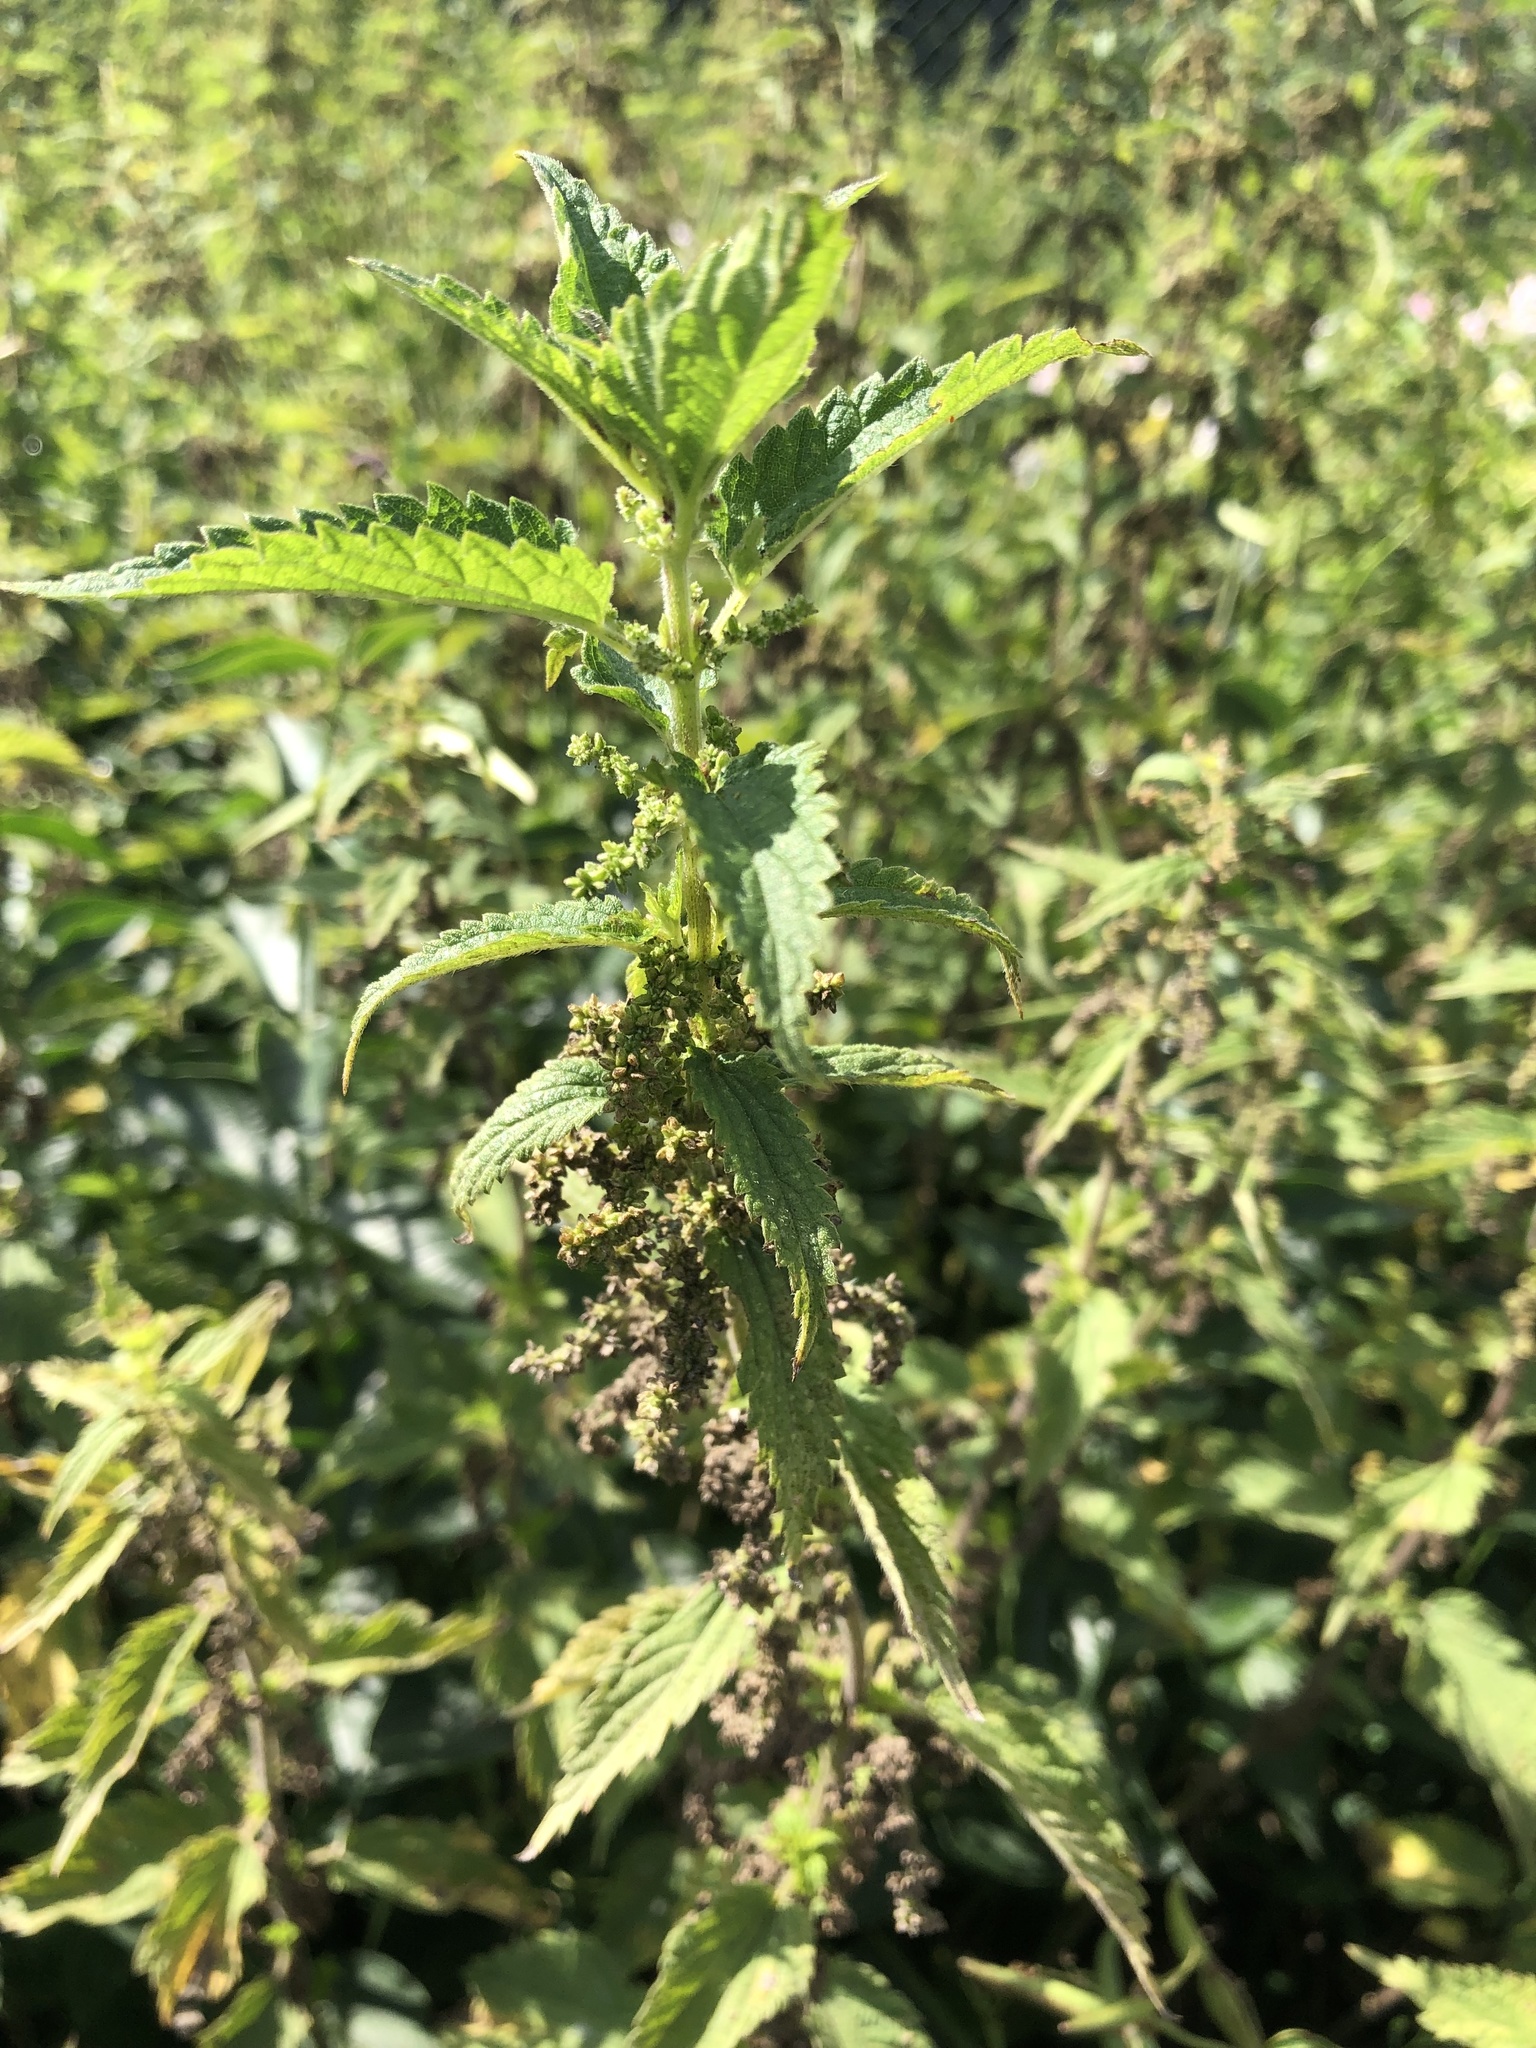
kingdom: Plantae
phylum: Tracheophyta
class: Magnoliopsida
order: Rosales
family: Urticaceae
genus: Urtica
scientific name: Urtica dioica
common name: Common nettle
